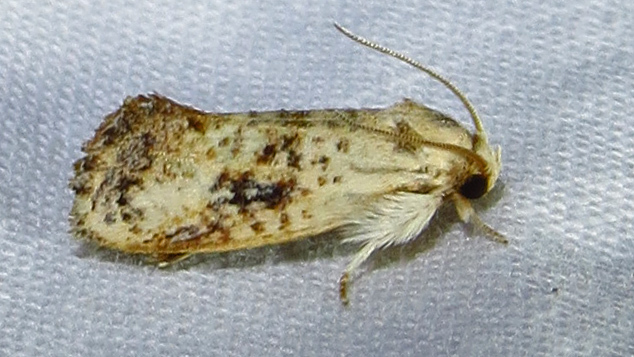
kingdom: Animalia
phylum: Arthropoda
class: Insecta
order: Lepidoptera
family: Tineidae
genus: Acrolophus
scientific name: Acrolophus mycetophagus
